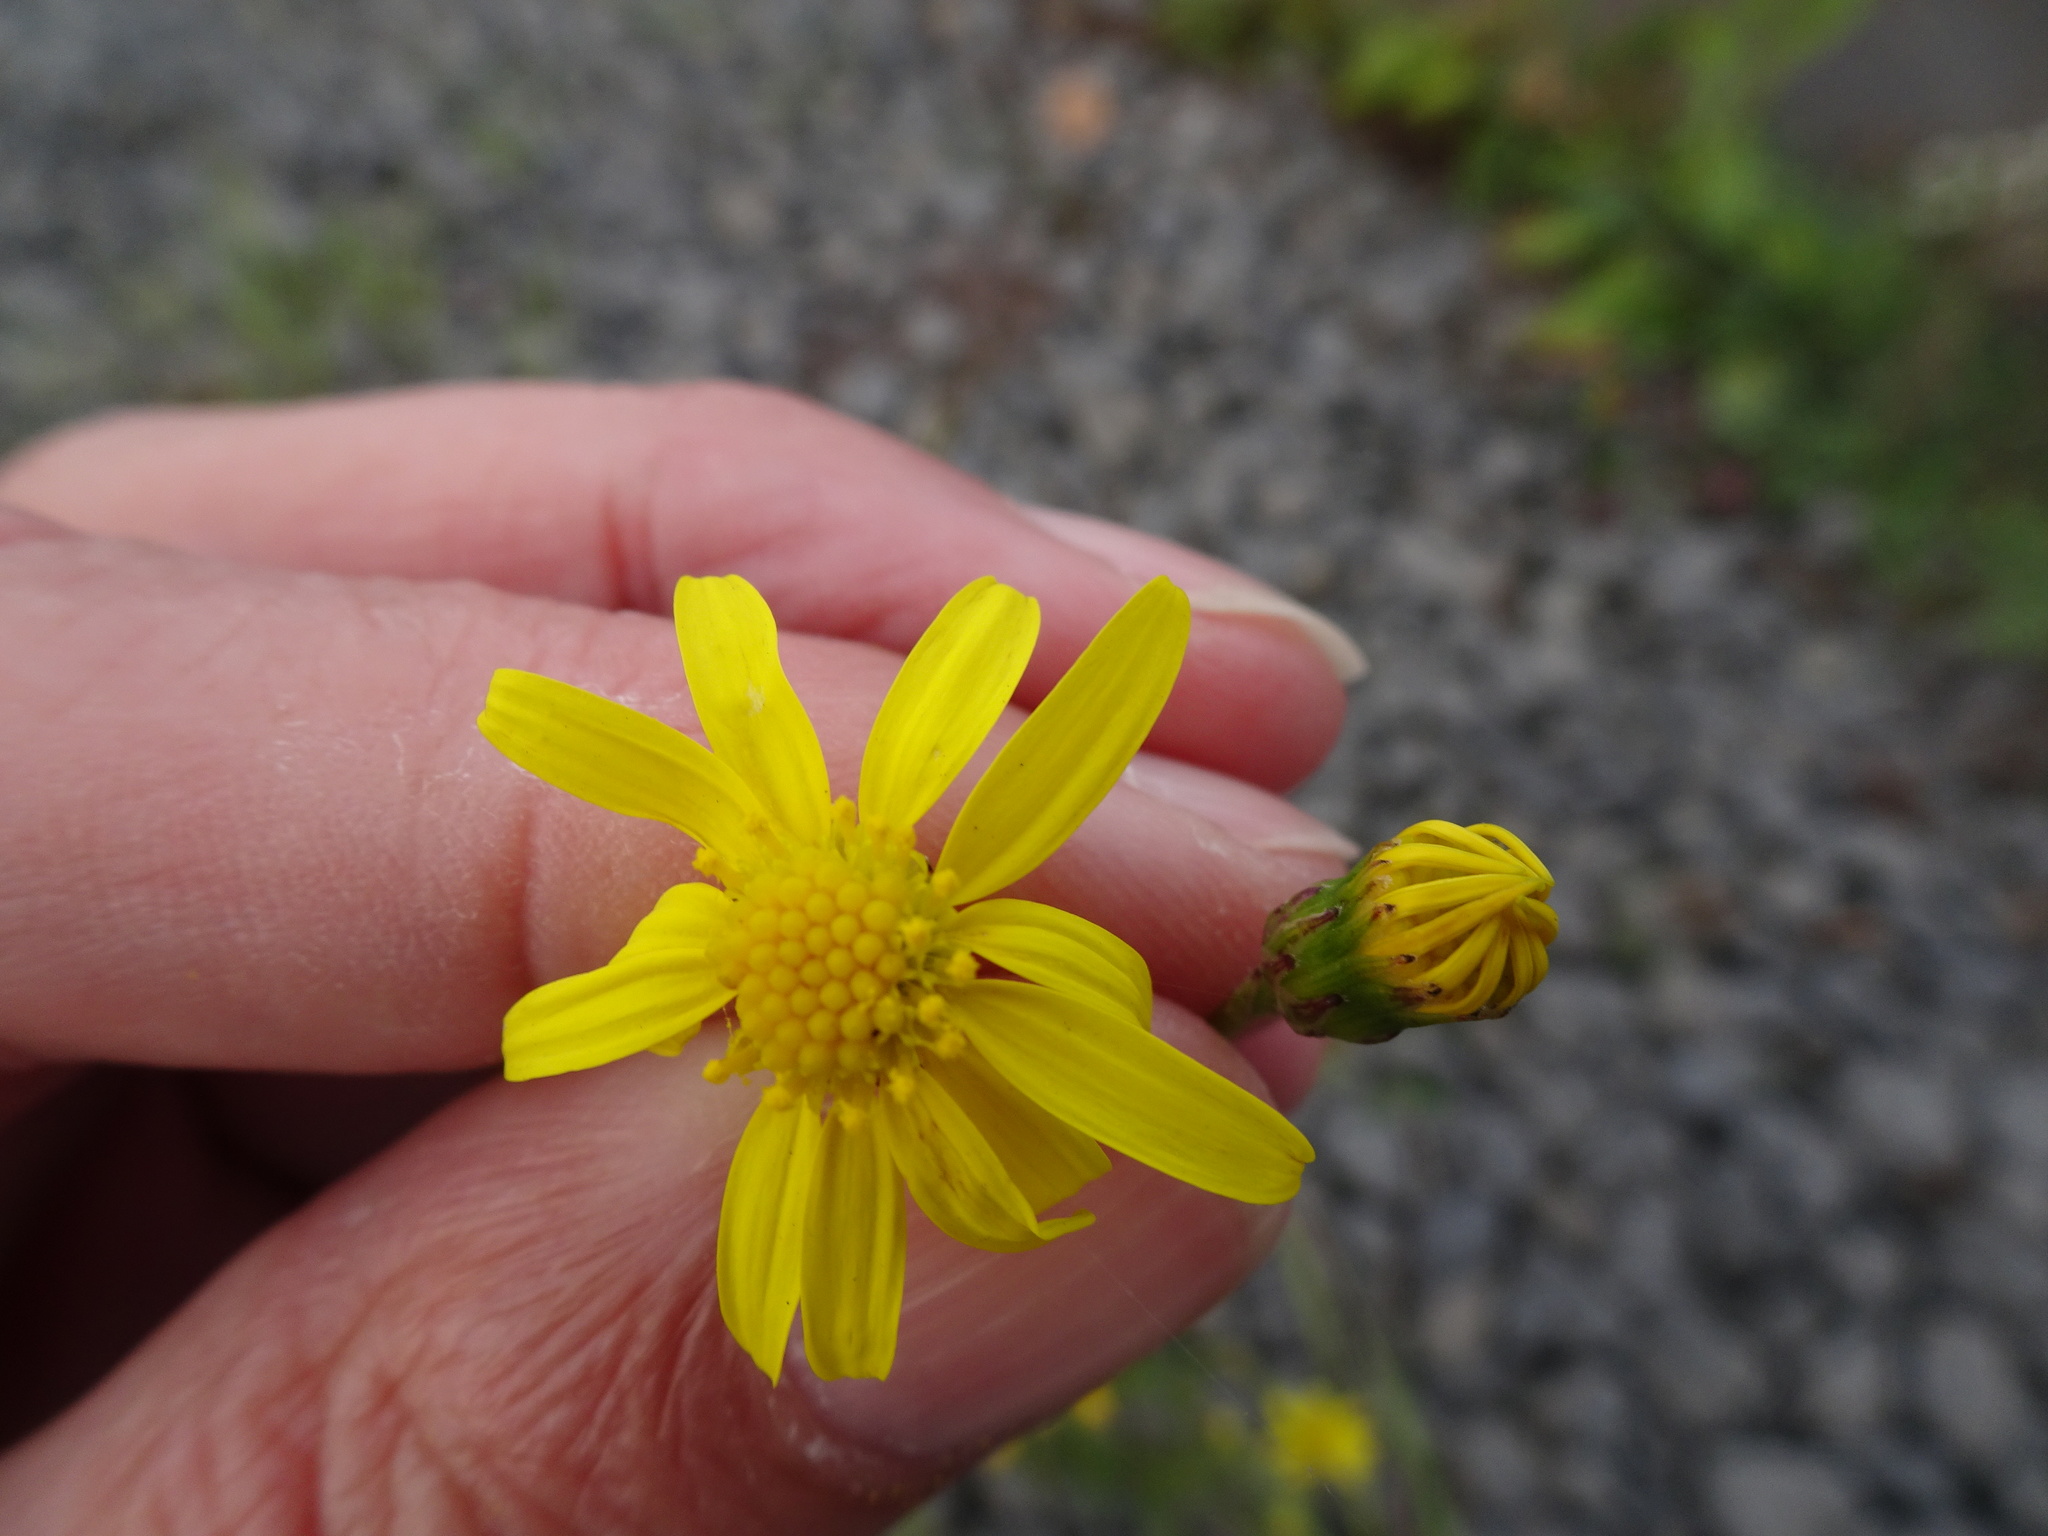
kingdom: Plantae
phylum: Tracheophyta
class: Magnoliopsida
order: Asterales
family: Asteraceae
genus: Senecio
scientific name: Senecio inaequidens
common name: Narrow-leaved ragwort
